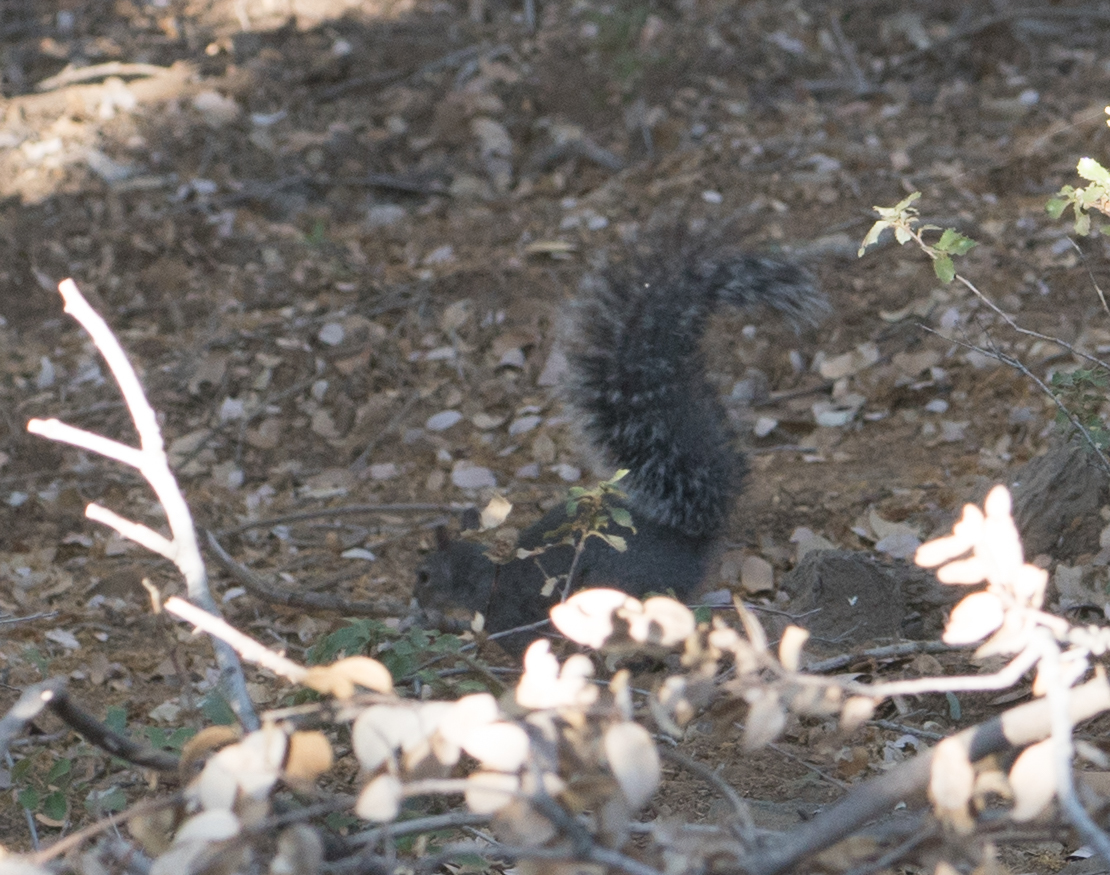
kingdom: Animalia
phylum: Chordata
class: Mammalia
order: Rodentia
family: Sciuridae
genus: Sciurus
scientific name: Sciurus griseus
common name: Western gray squirrel
